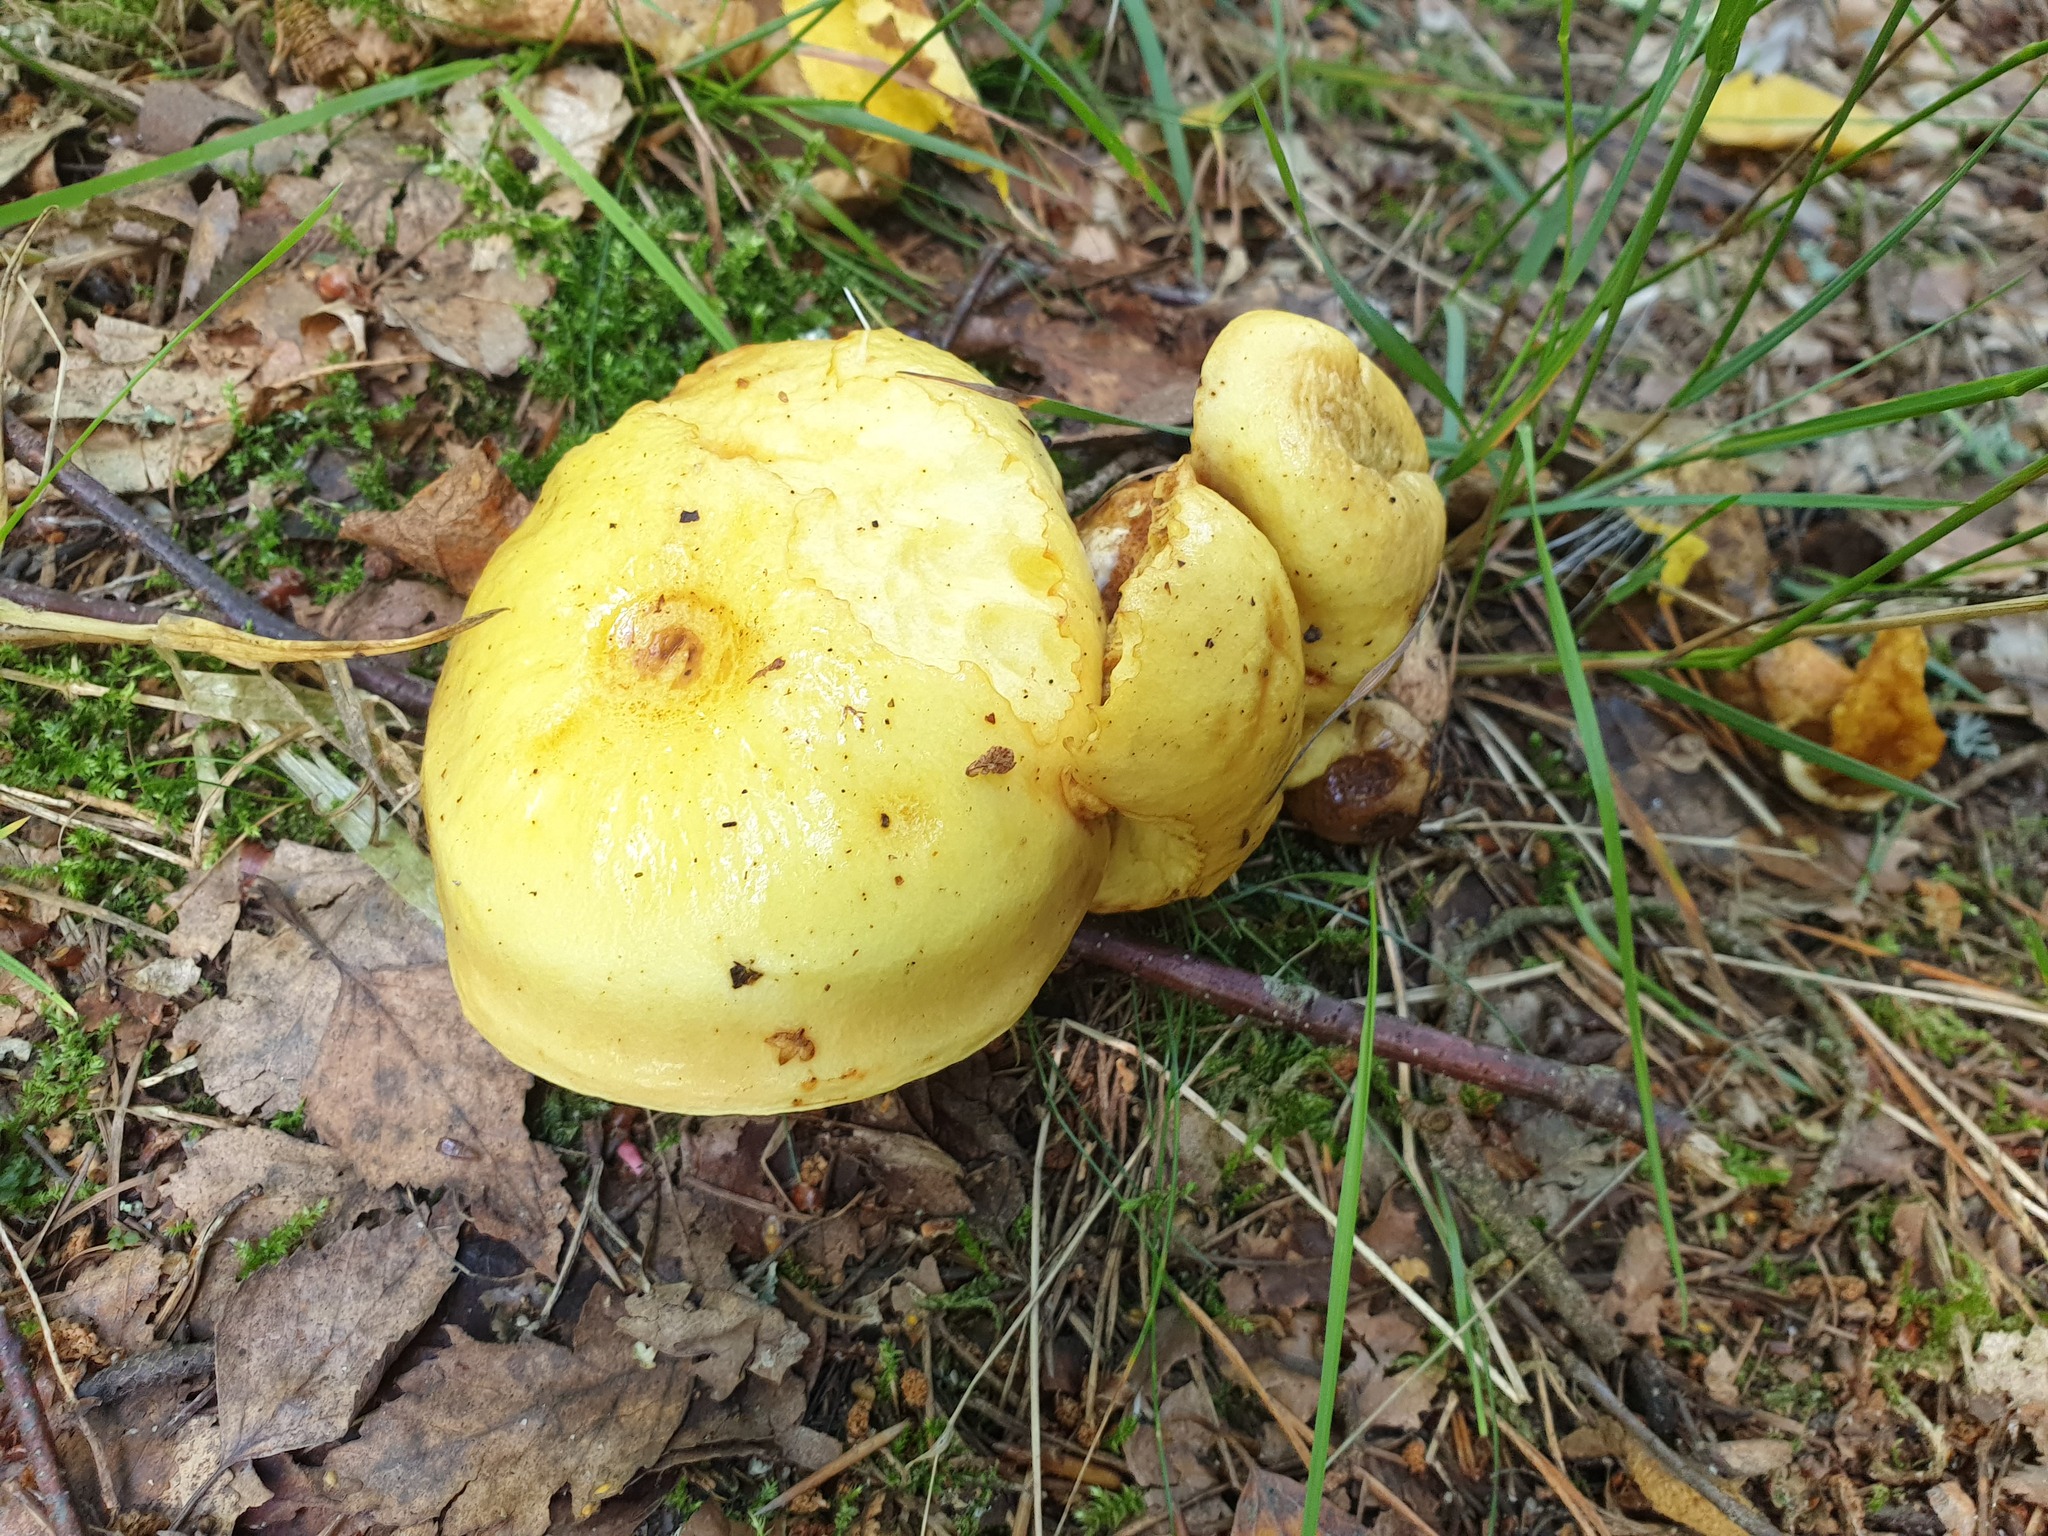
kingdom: Fungi
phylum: Basidiomycota
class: Agaricomycetes
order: Boletales
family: Suillaceae
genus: Suillus
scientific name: Suillus grevillei
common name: Larch bolete
